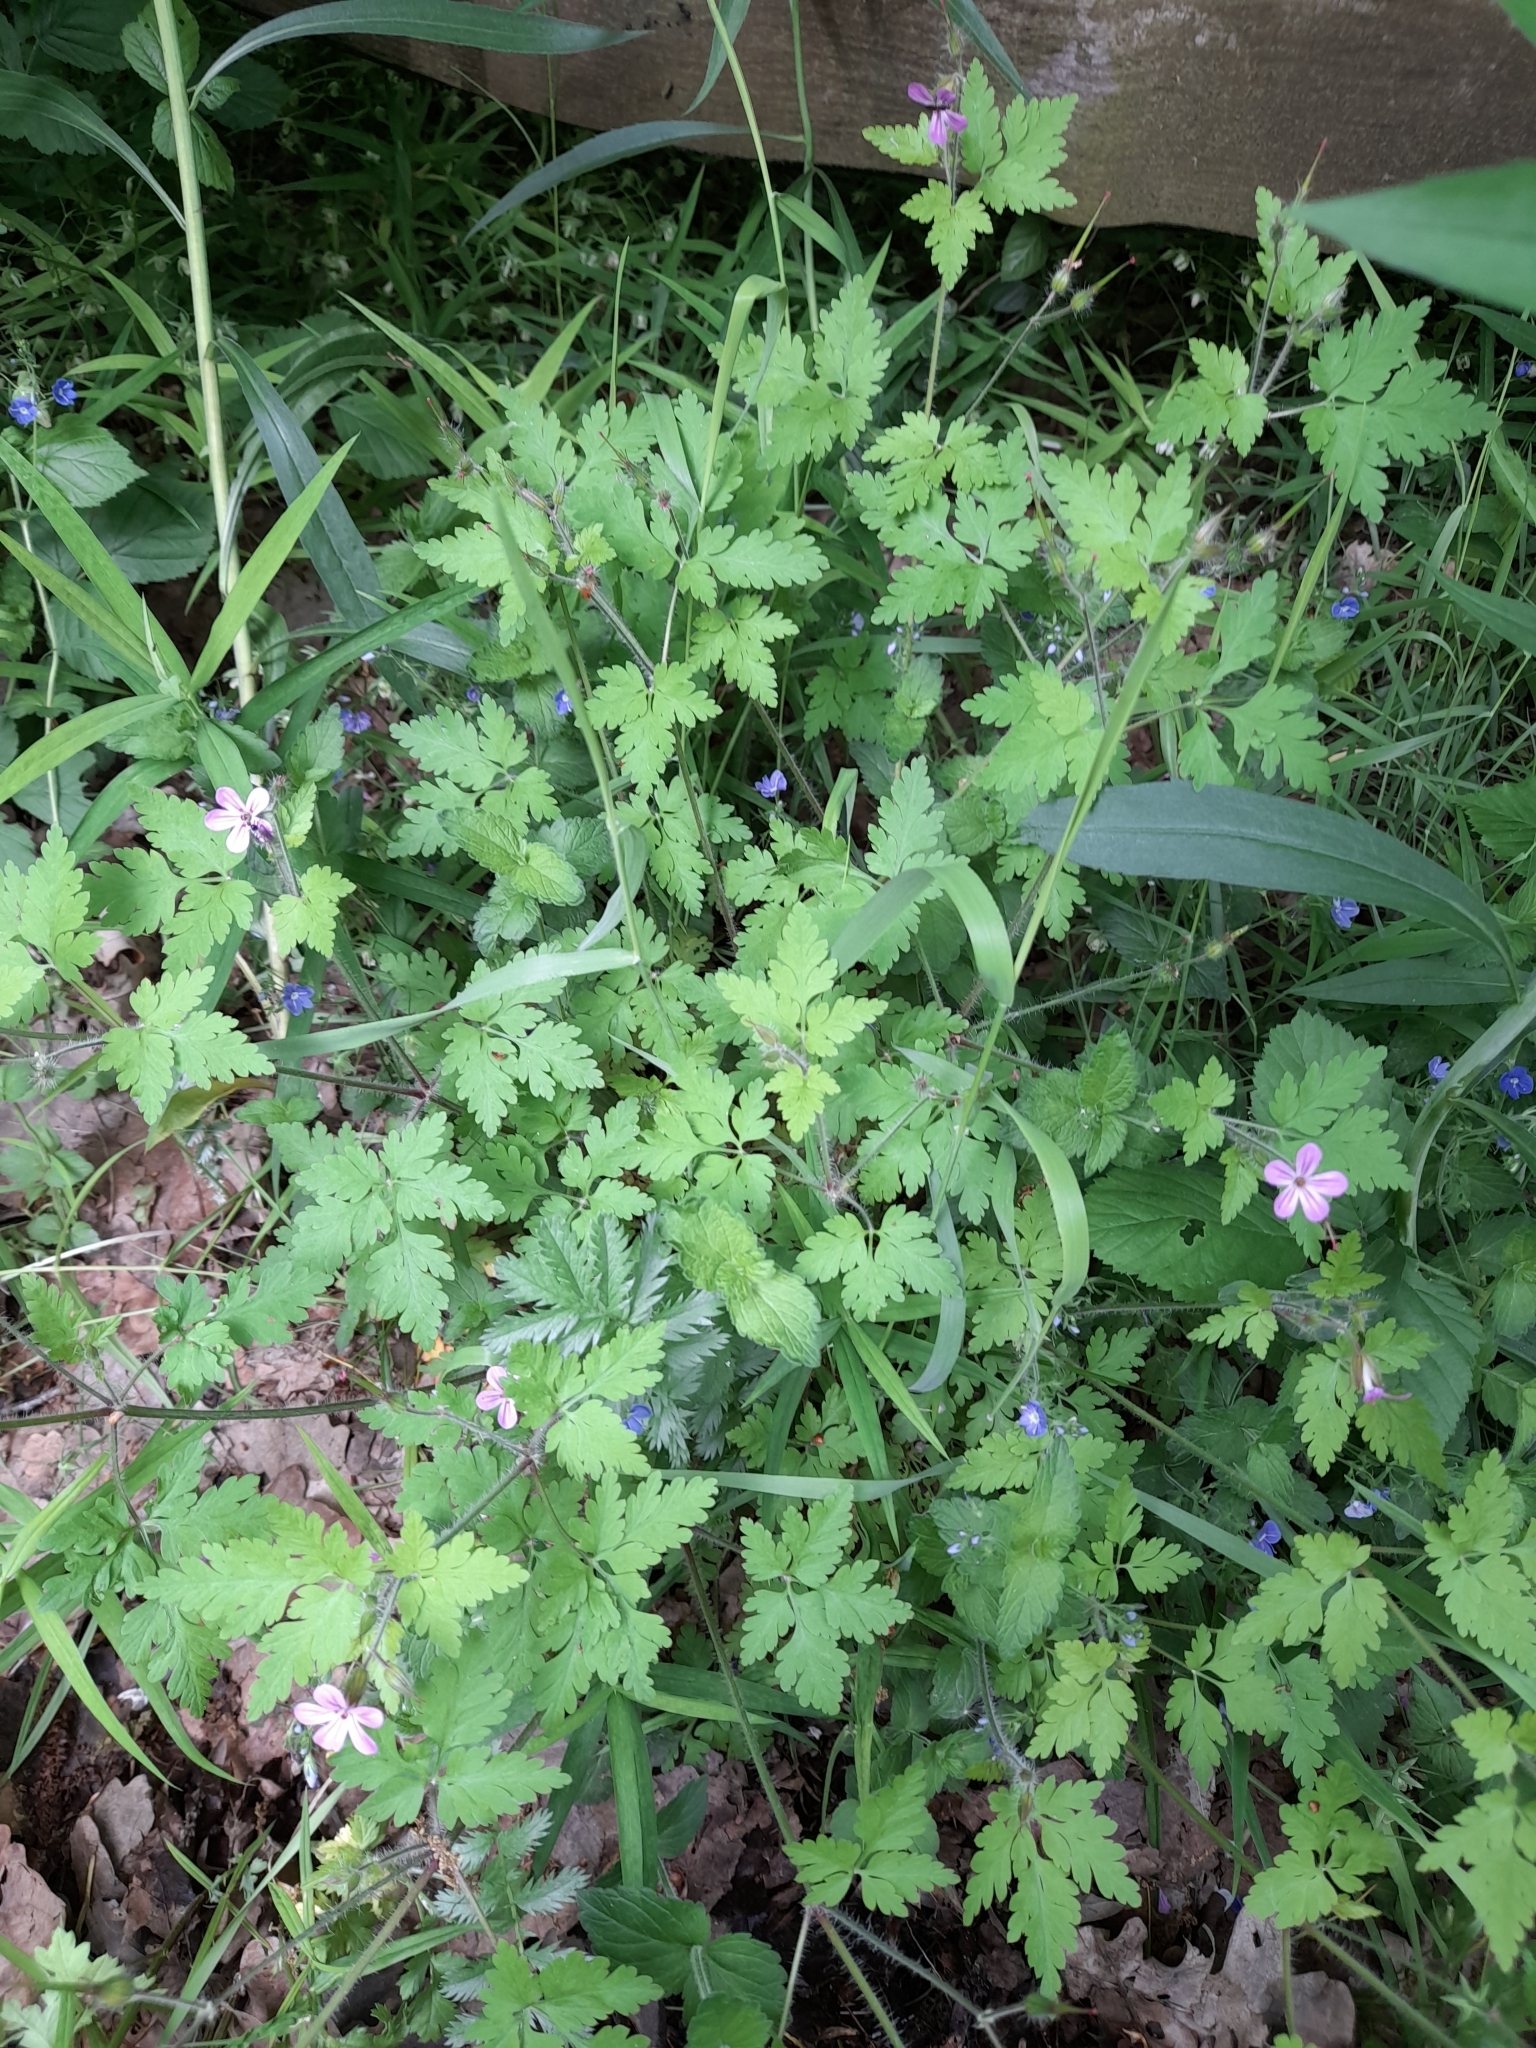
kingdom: Plantae
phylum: Tracheophyta
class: Magnoliopsida
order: Geraniales
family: Geraniaceae
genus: Geranium
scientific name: Geranium robertianum
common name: Herb-robert
